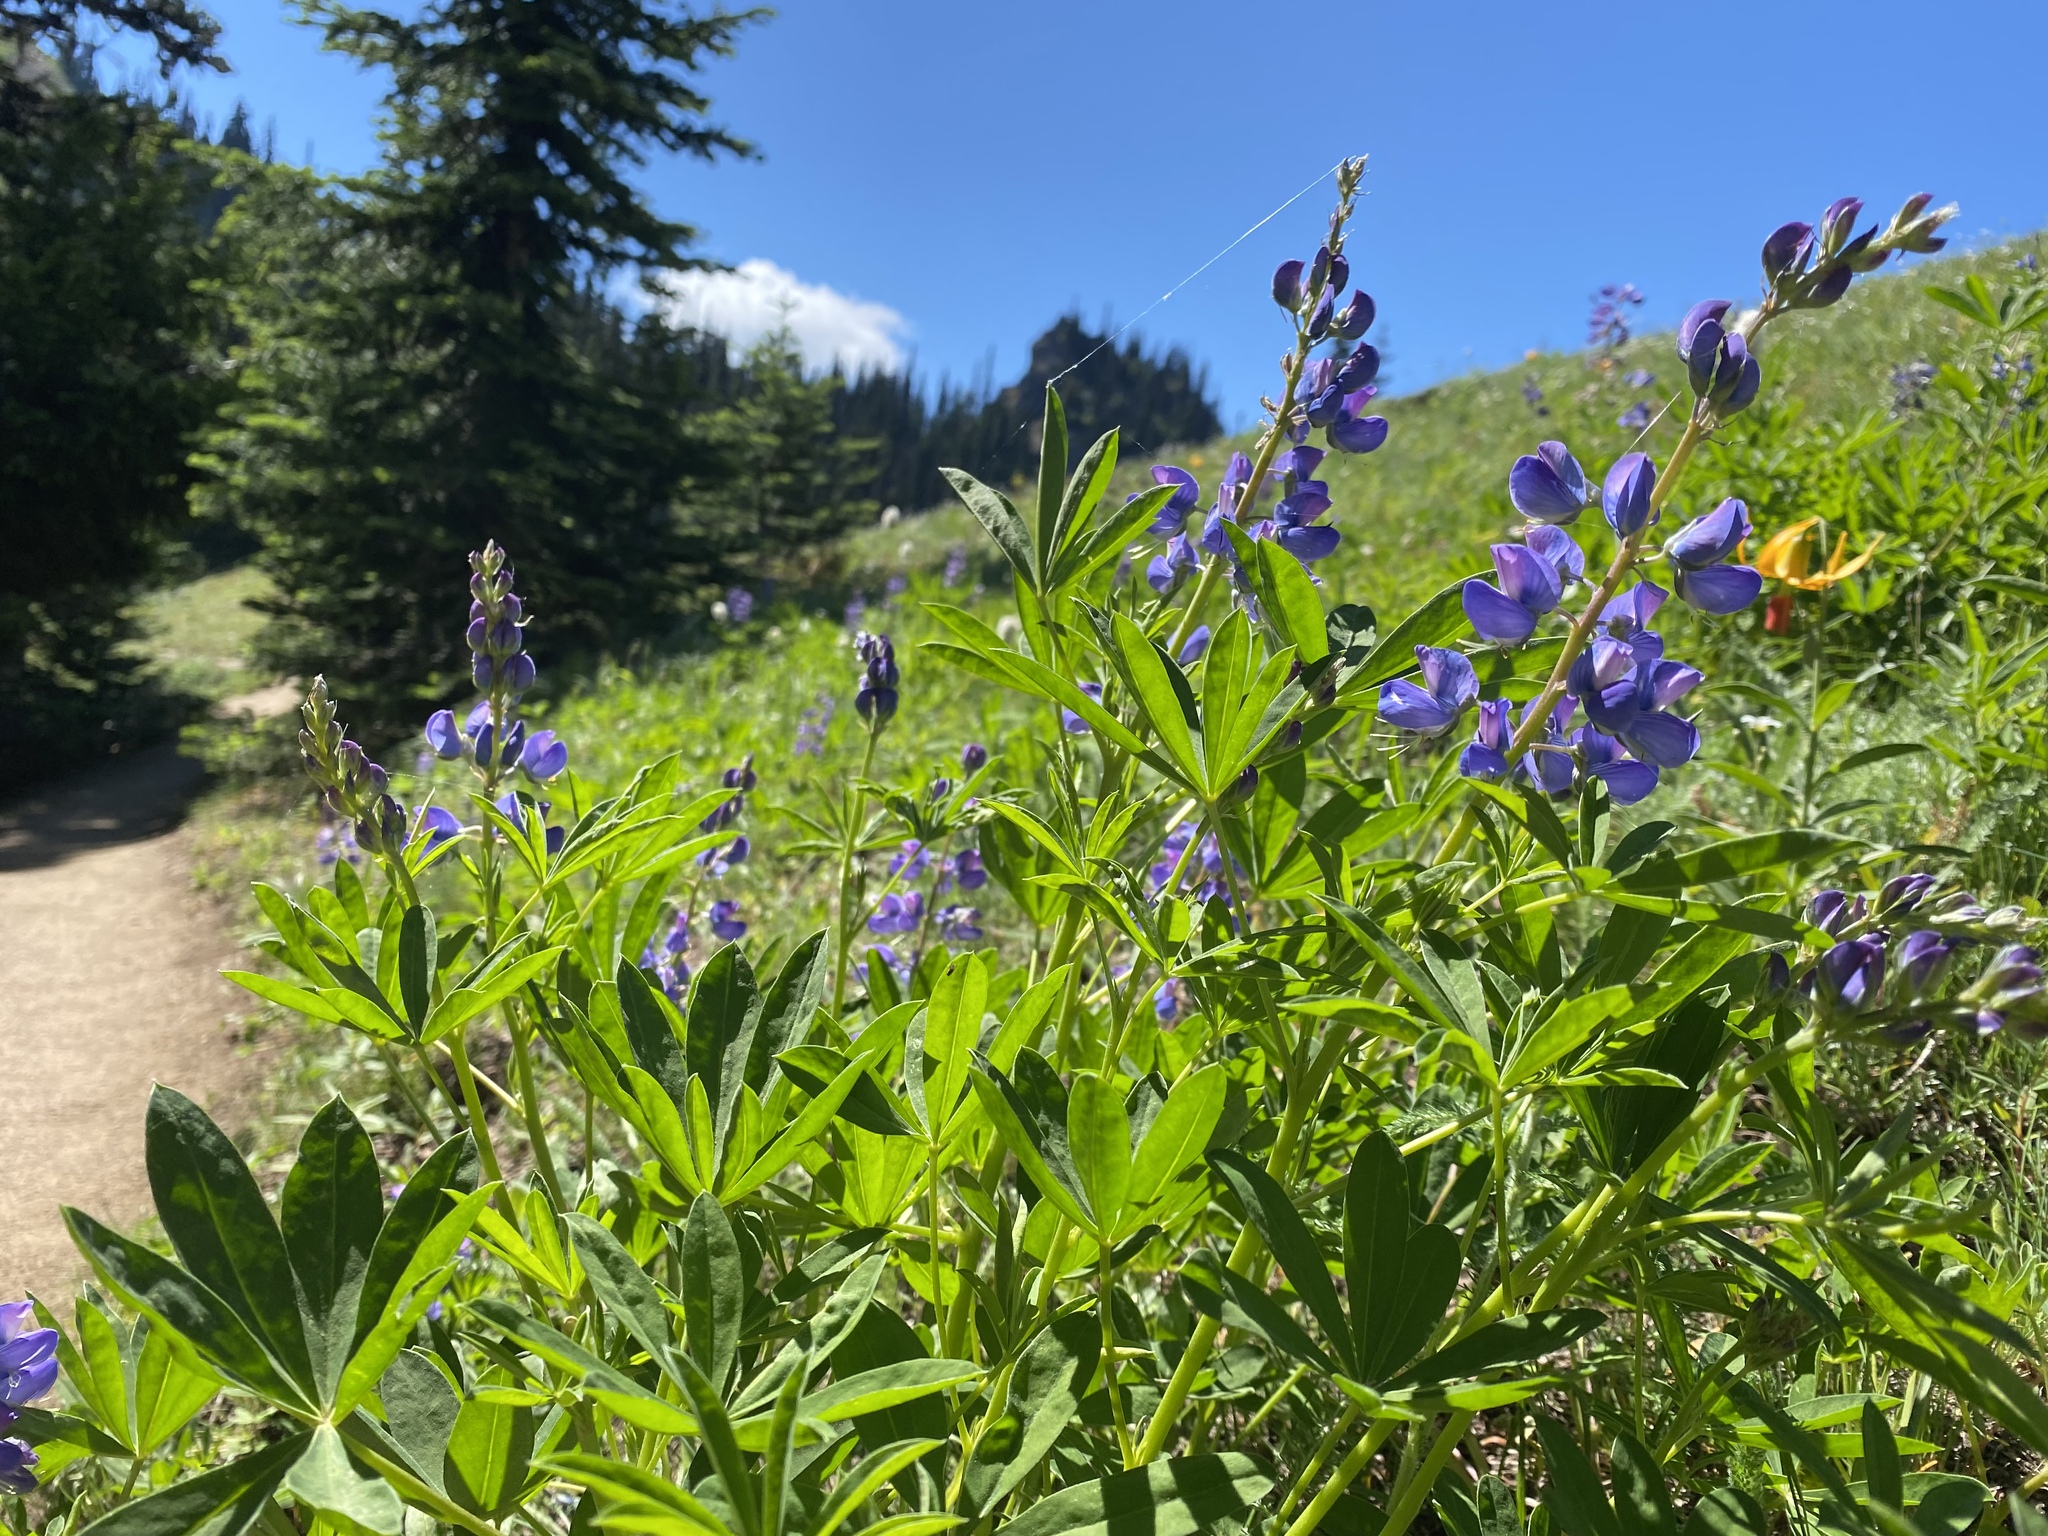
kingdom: Plantae
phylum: Tracheophyta
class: Magnoliopsida
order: Fabales
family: Fabaceae
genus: Lupinus
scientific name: Lupinus latifolius
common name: Broad-leaved lupine
